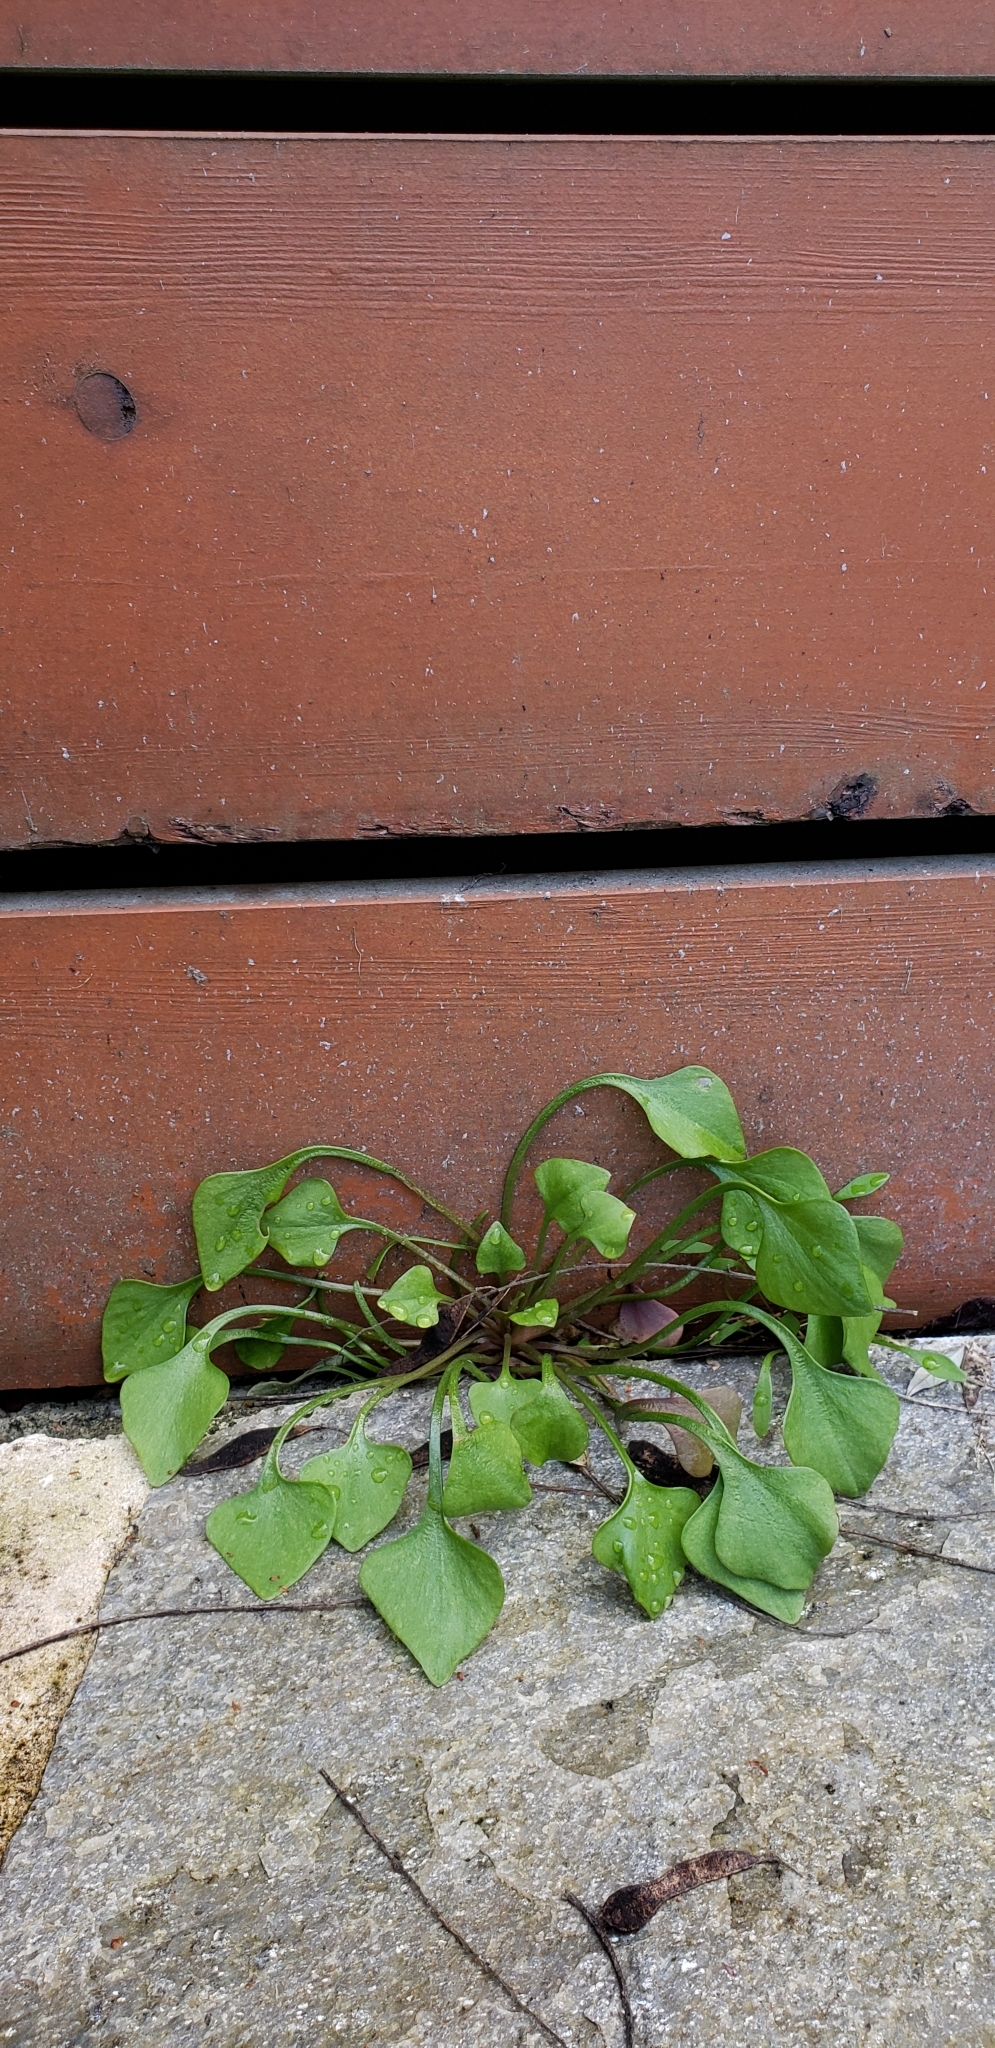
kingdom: Plantae
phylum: Tracheophyta
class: Magnoliopsida
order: Caryophyllales
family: Montiaceae
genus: Claytonia
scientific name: Claytonia perfoliata
